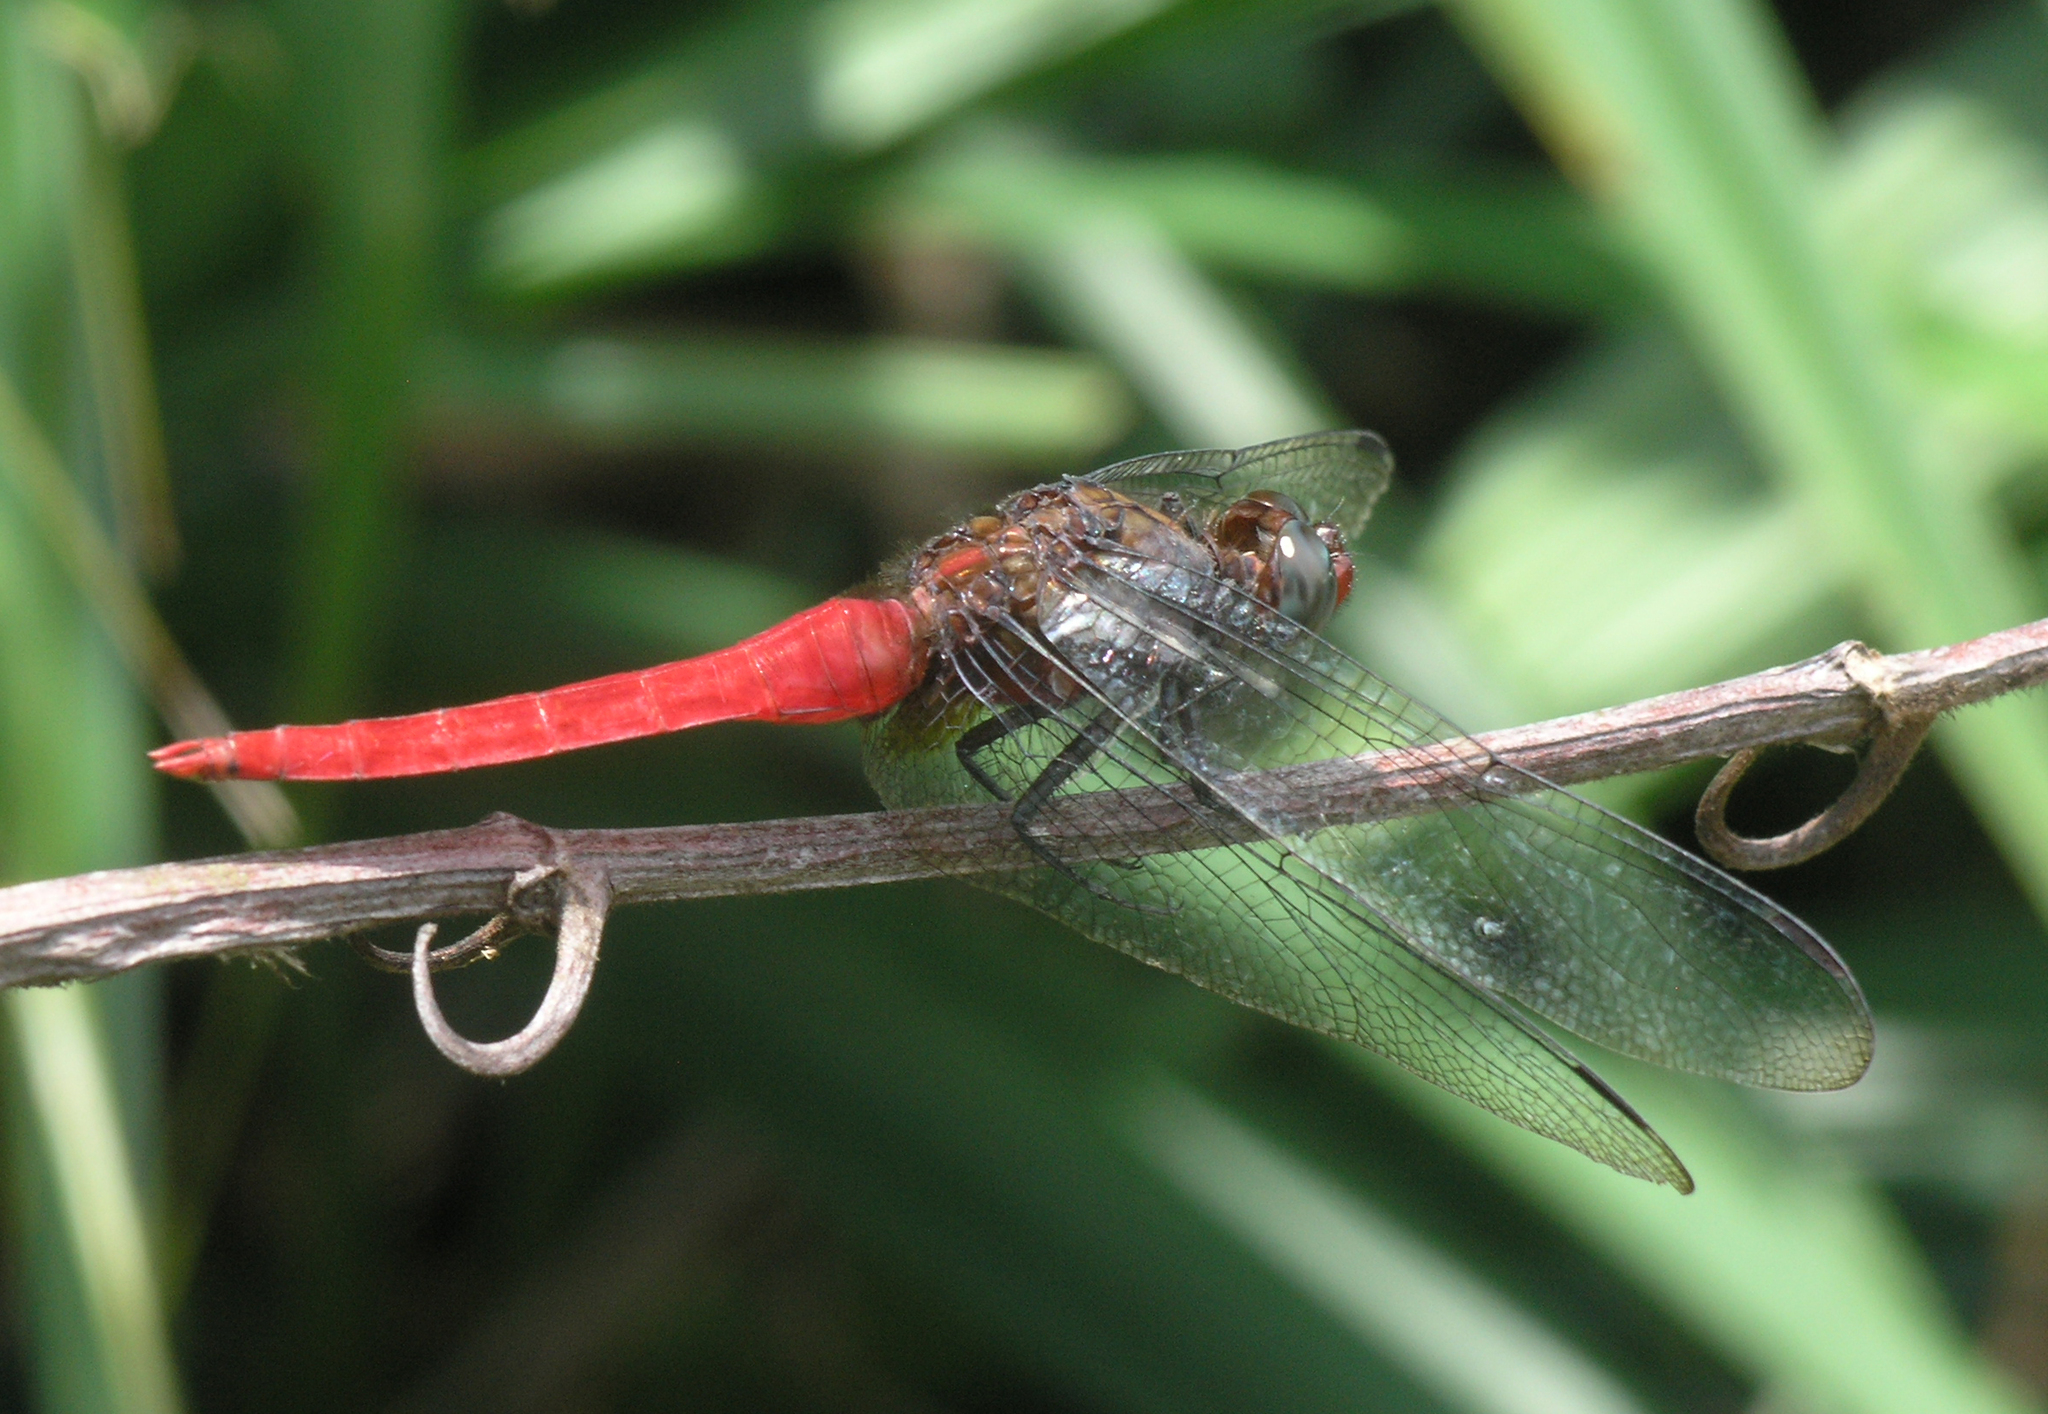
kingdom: Animalia
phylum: Arthropoda
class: Insecta
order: Odonata
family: Libellulidae
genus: Orthetrum
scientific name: Orthetrum chrysis
